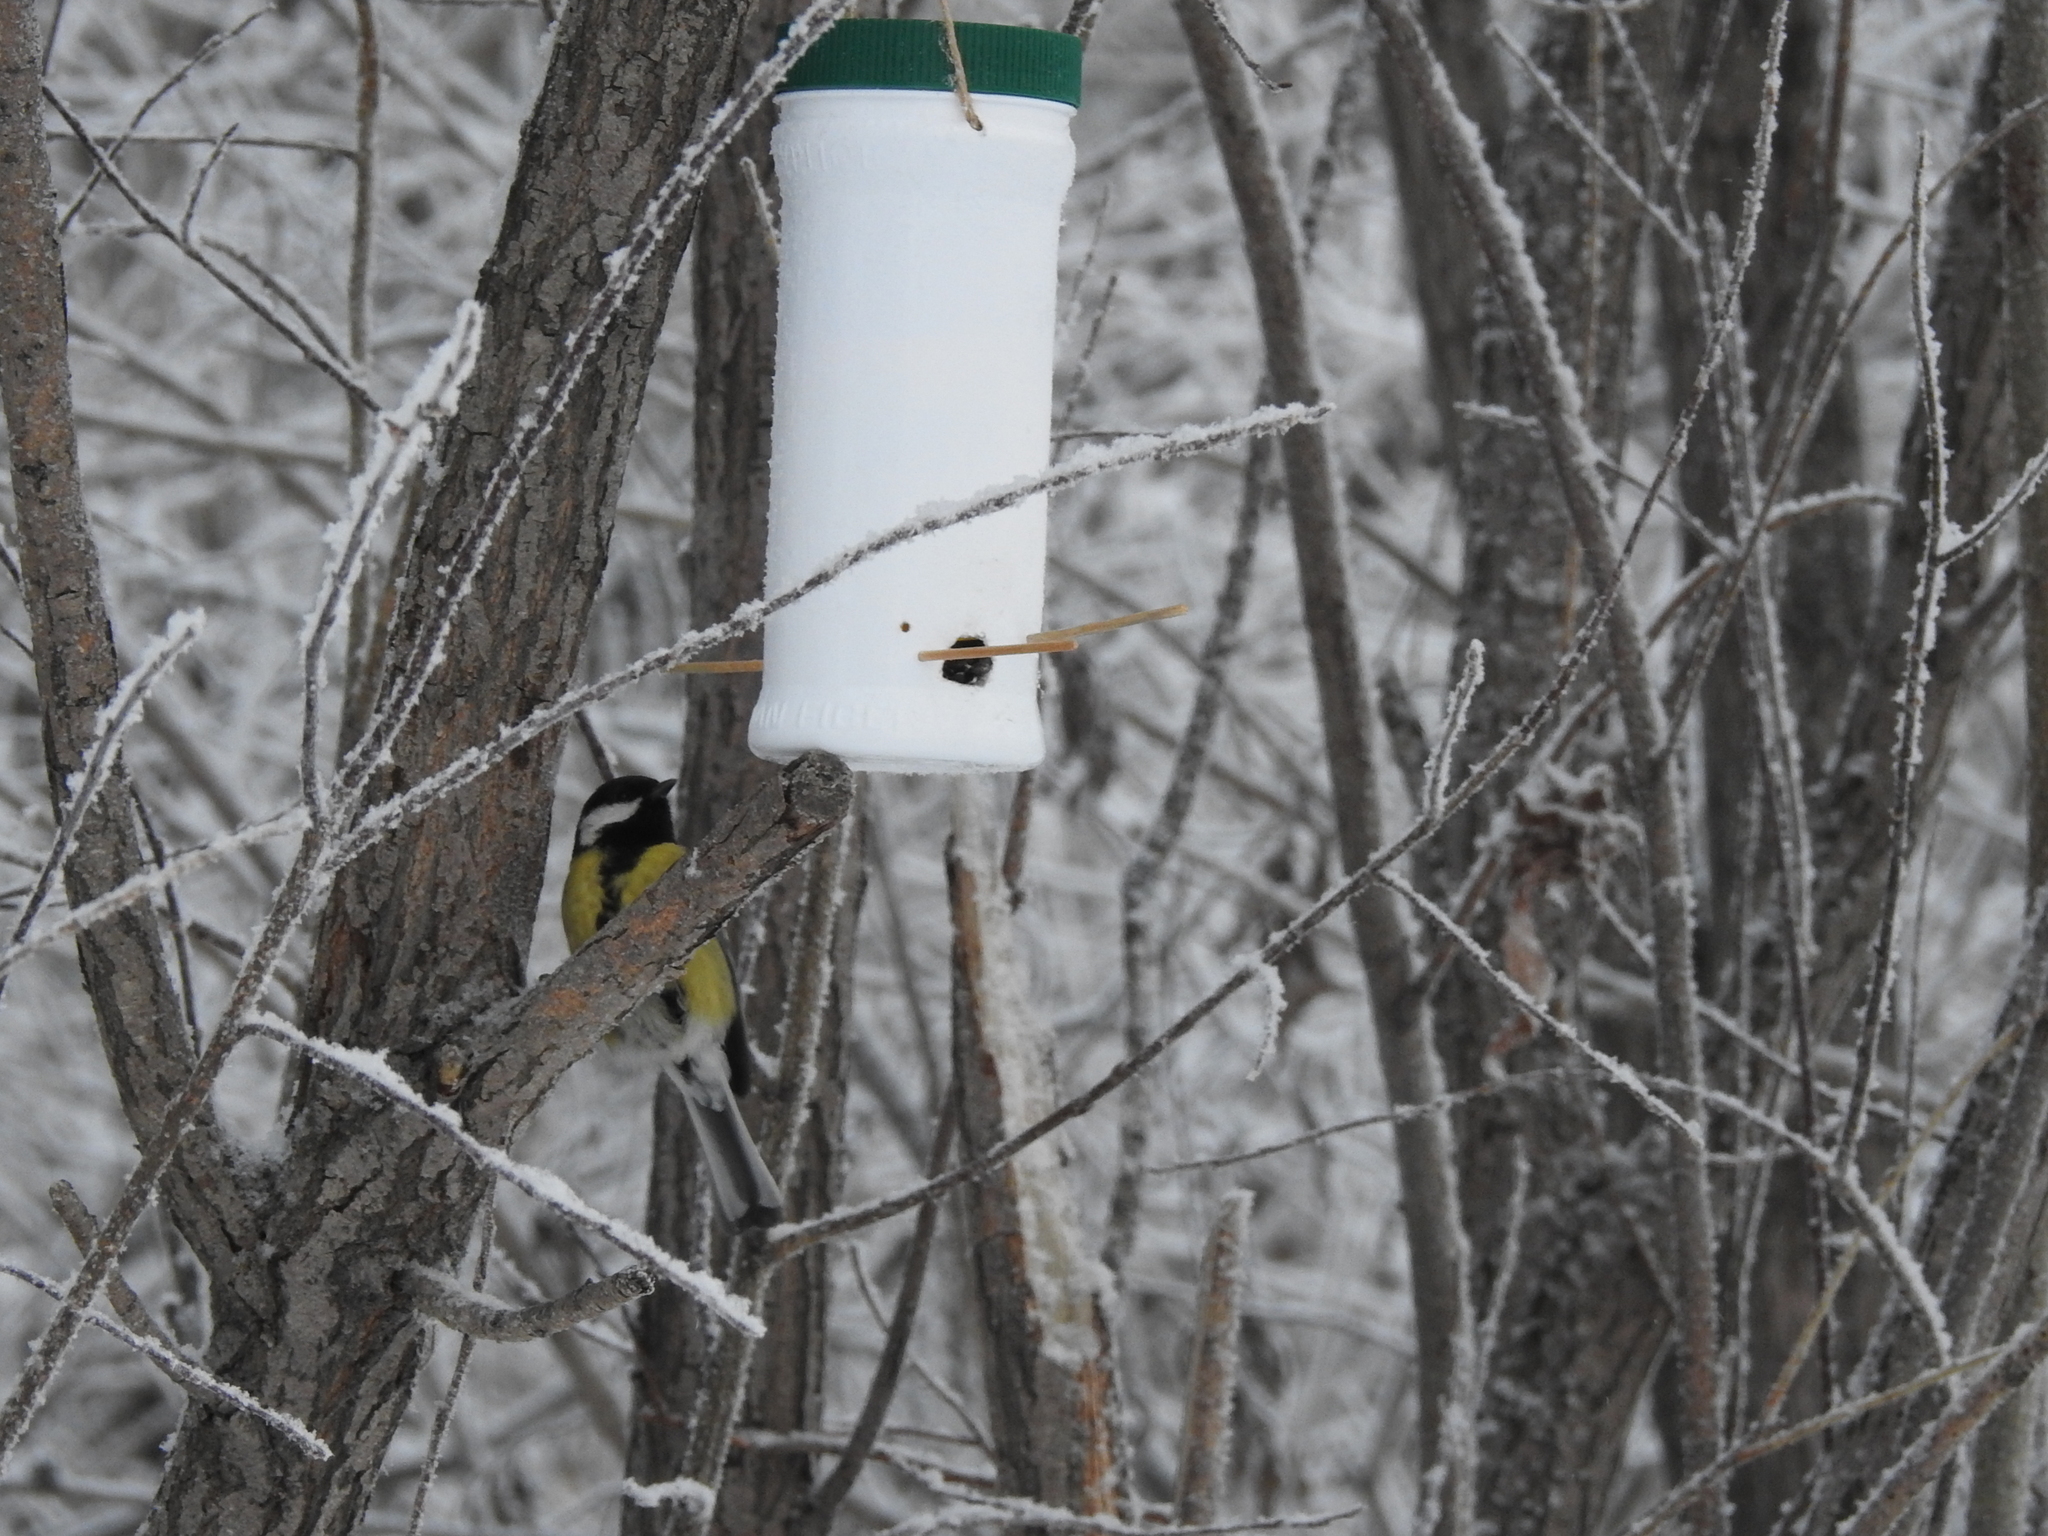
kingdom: Animalia
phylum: Chordata
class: Aves
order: Passeriformes
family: Paridae
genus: Parus
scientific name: Parus major
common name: Great tit
